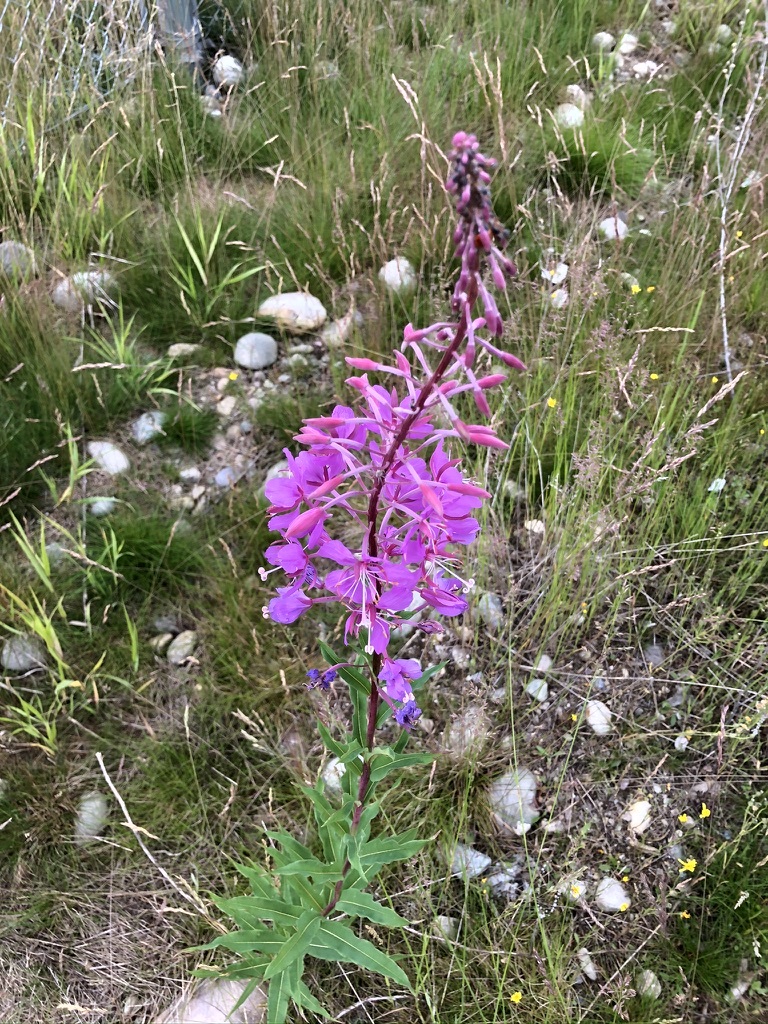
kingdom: Plantae
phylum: Tracheophyta
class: Magnoliopsida
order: Myrtales
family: Onagraceae
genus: Chamaenerion
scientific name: Chamaenerion angustifolium
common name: Fireweed
